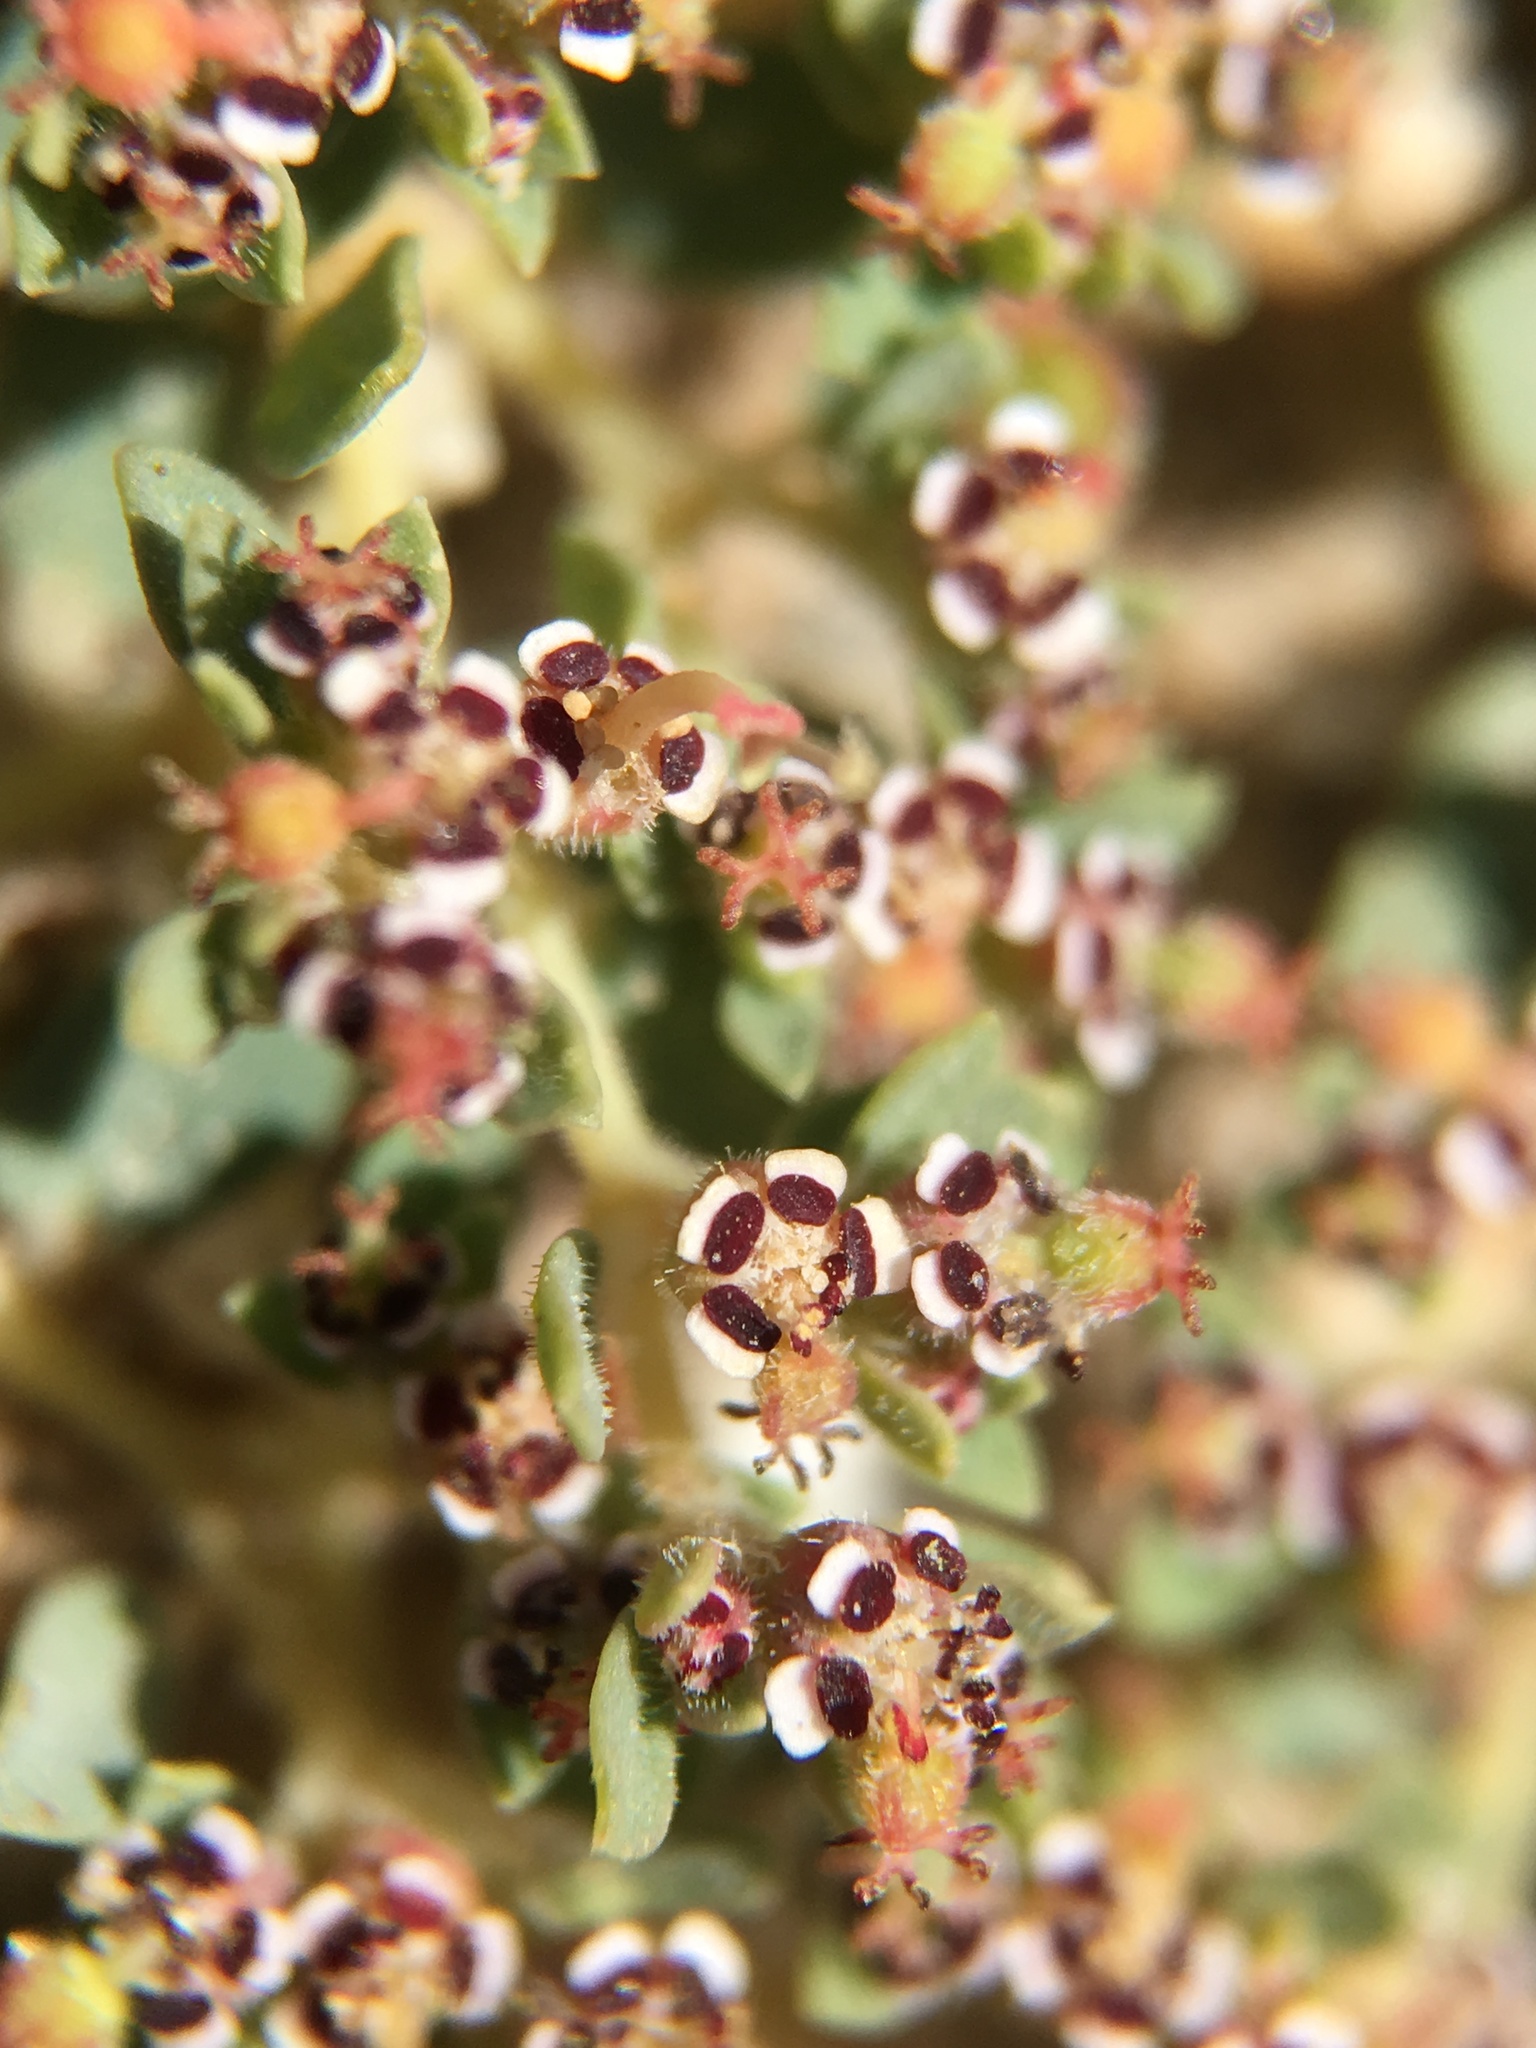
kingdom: Plantae
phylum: Tracheophyta
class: Magnoliopsida
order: Malpighiales
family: Euphorbiaceae
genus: Euphorbia
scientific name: Euphorbia polycarpa
